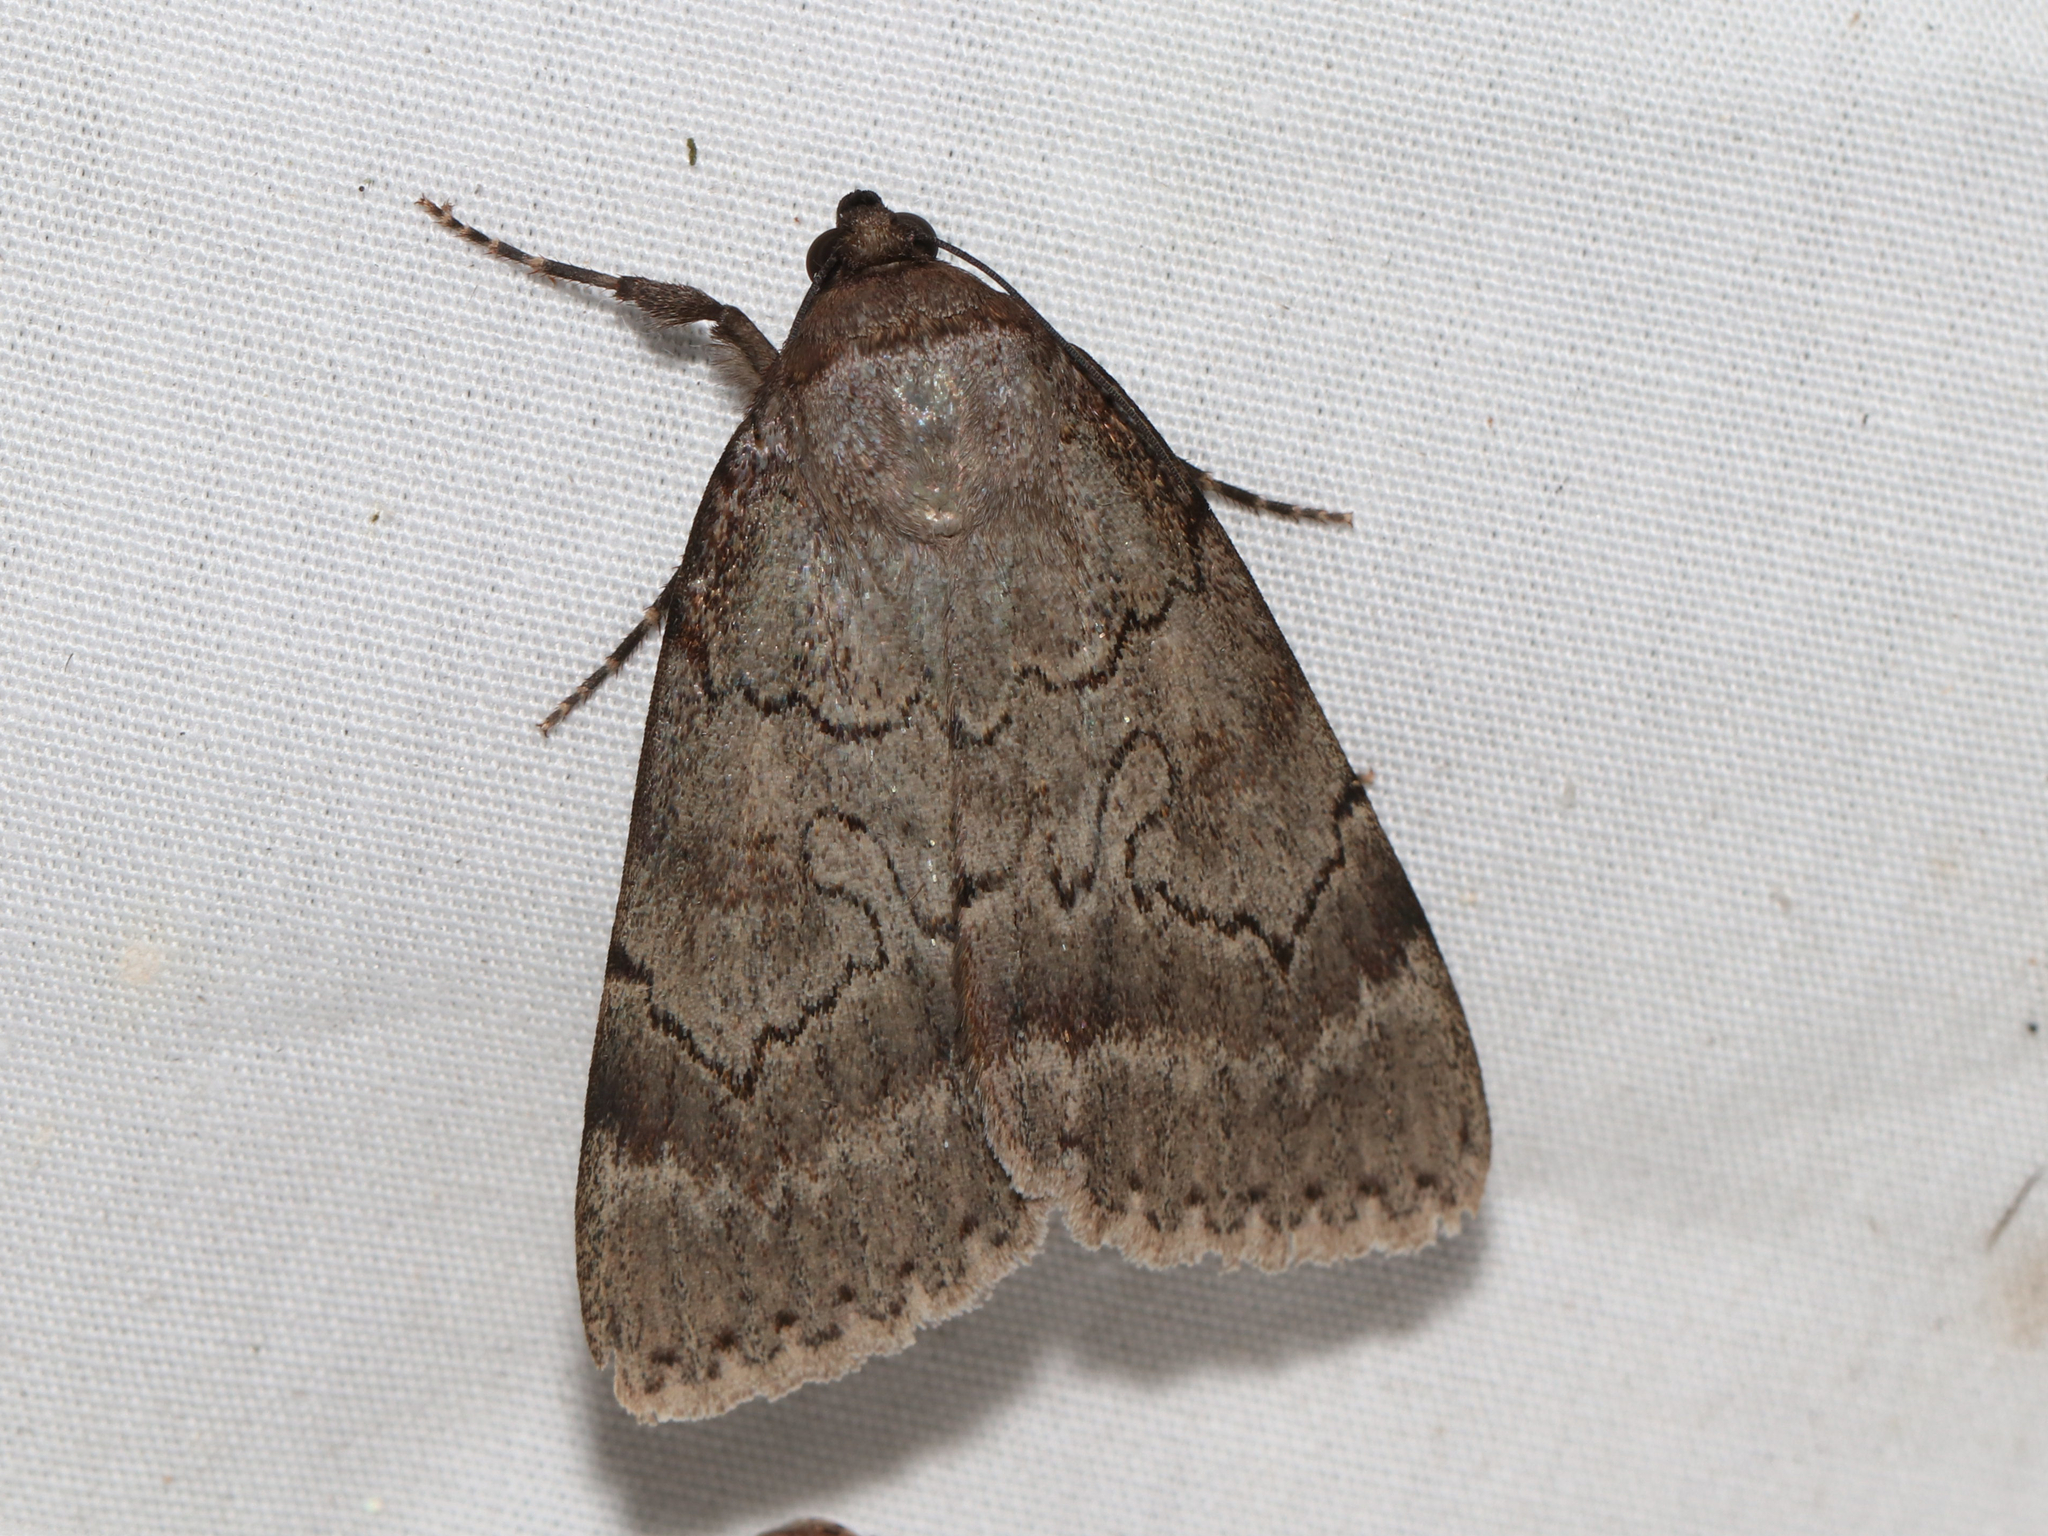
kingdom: Animalia
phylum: Arthropoda
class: Insecta
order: Lepidoptera
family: Erebidae
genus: Catocala
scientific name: Catocala serena
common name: Serene underwing
